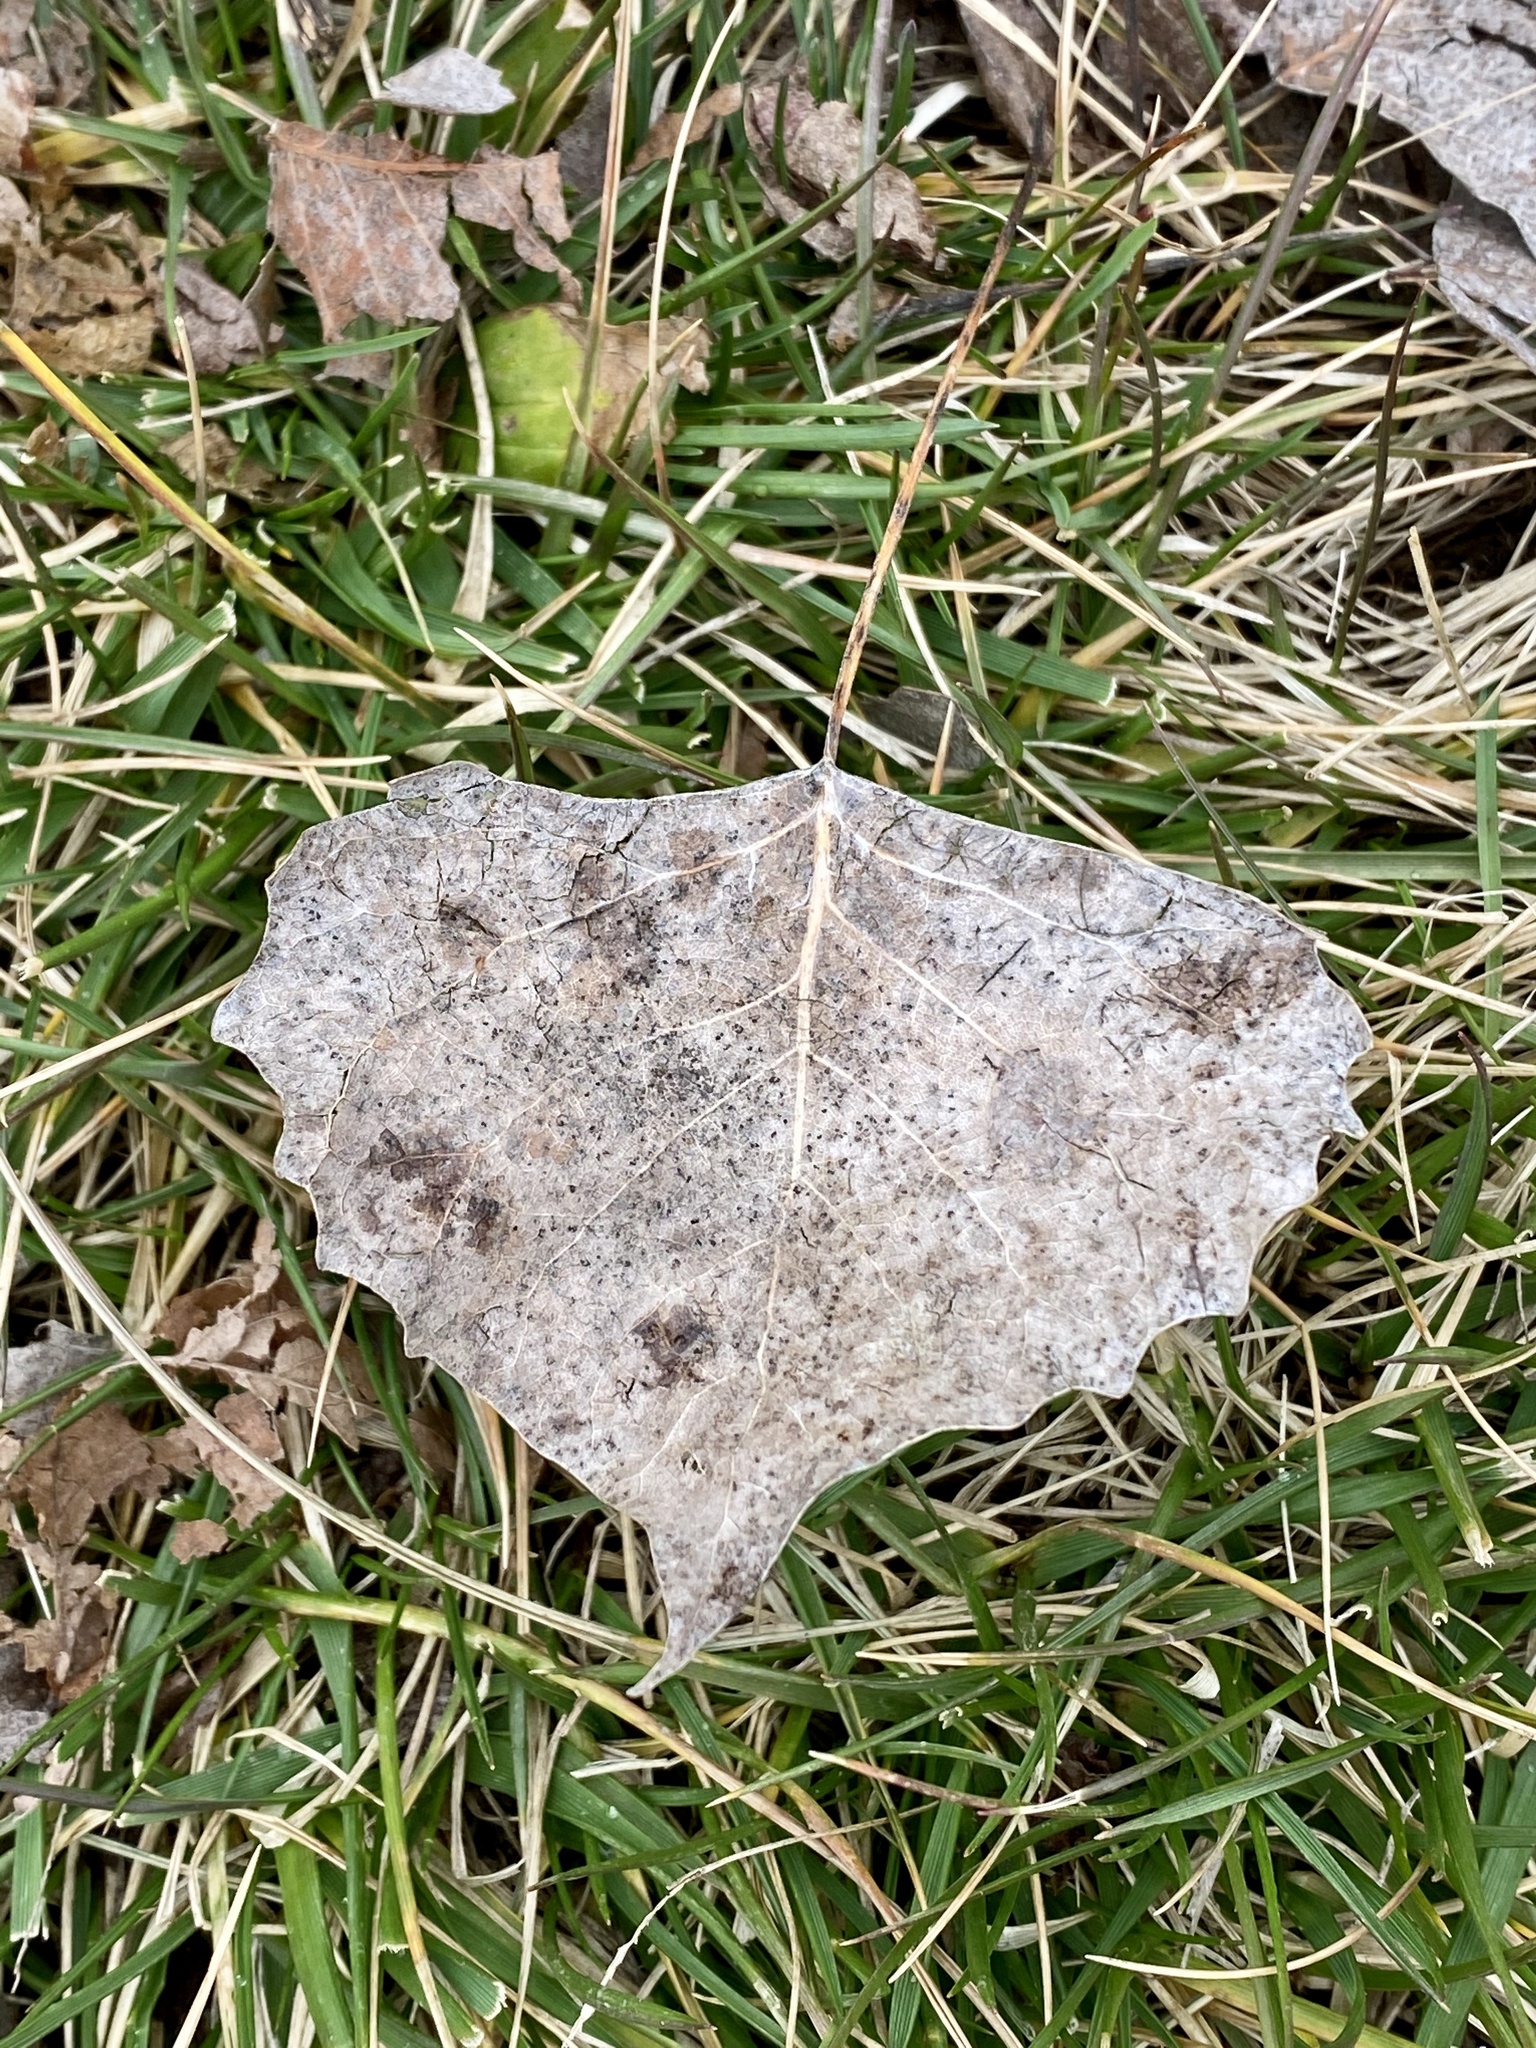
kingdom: Plantae
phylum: Tracheophyta
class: Magnoliopsida
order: Malpighiales
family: Salicaceae
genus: Populus
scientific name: Populus deltoides
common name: Eastern cottonwood
